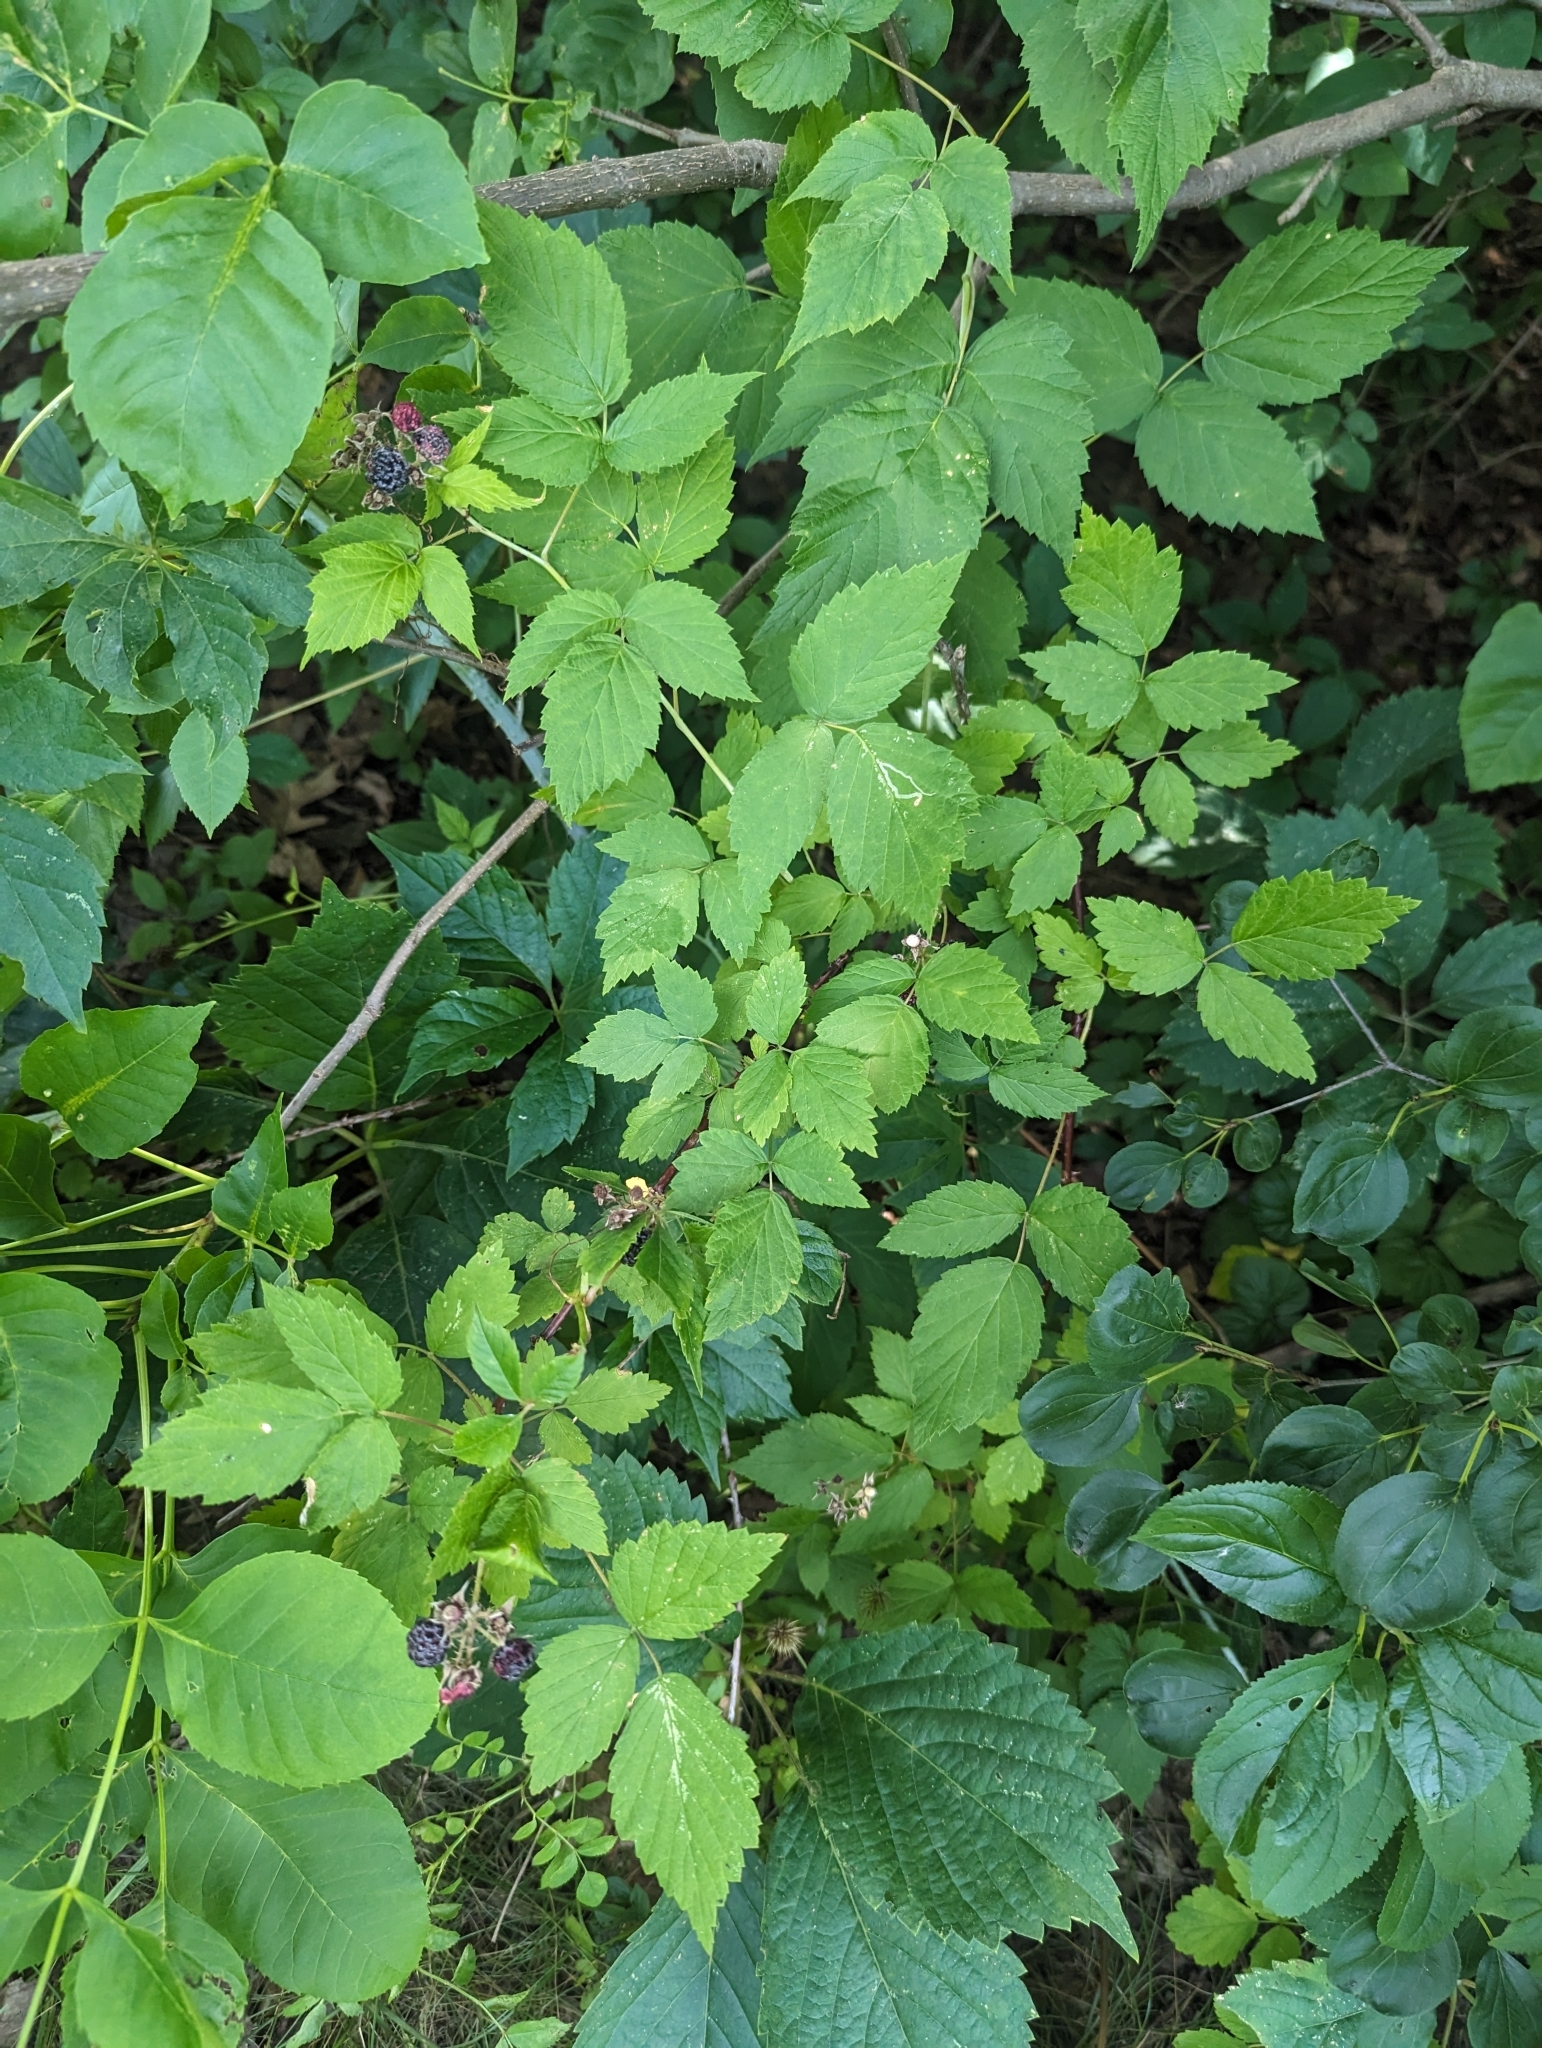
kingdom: Plantae
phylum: Tracheophyta
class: Magnoliopsida
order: Rosales
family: Rosaceae
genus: Rubus
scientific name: Rubus occidentalis
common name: Black raspberry
